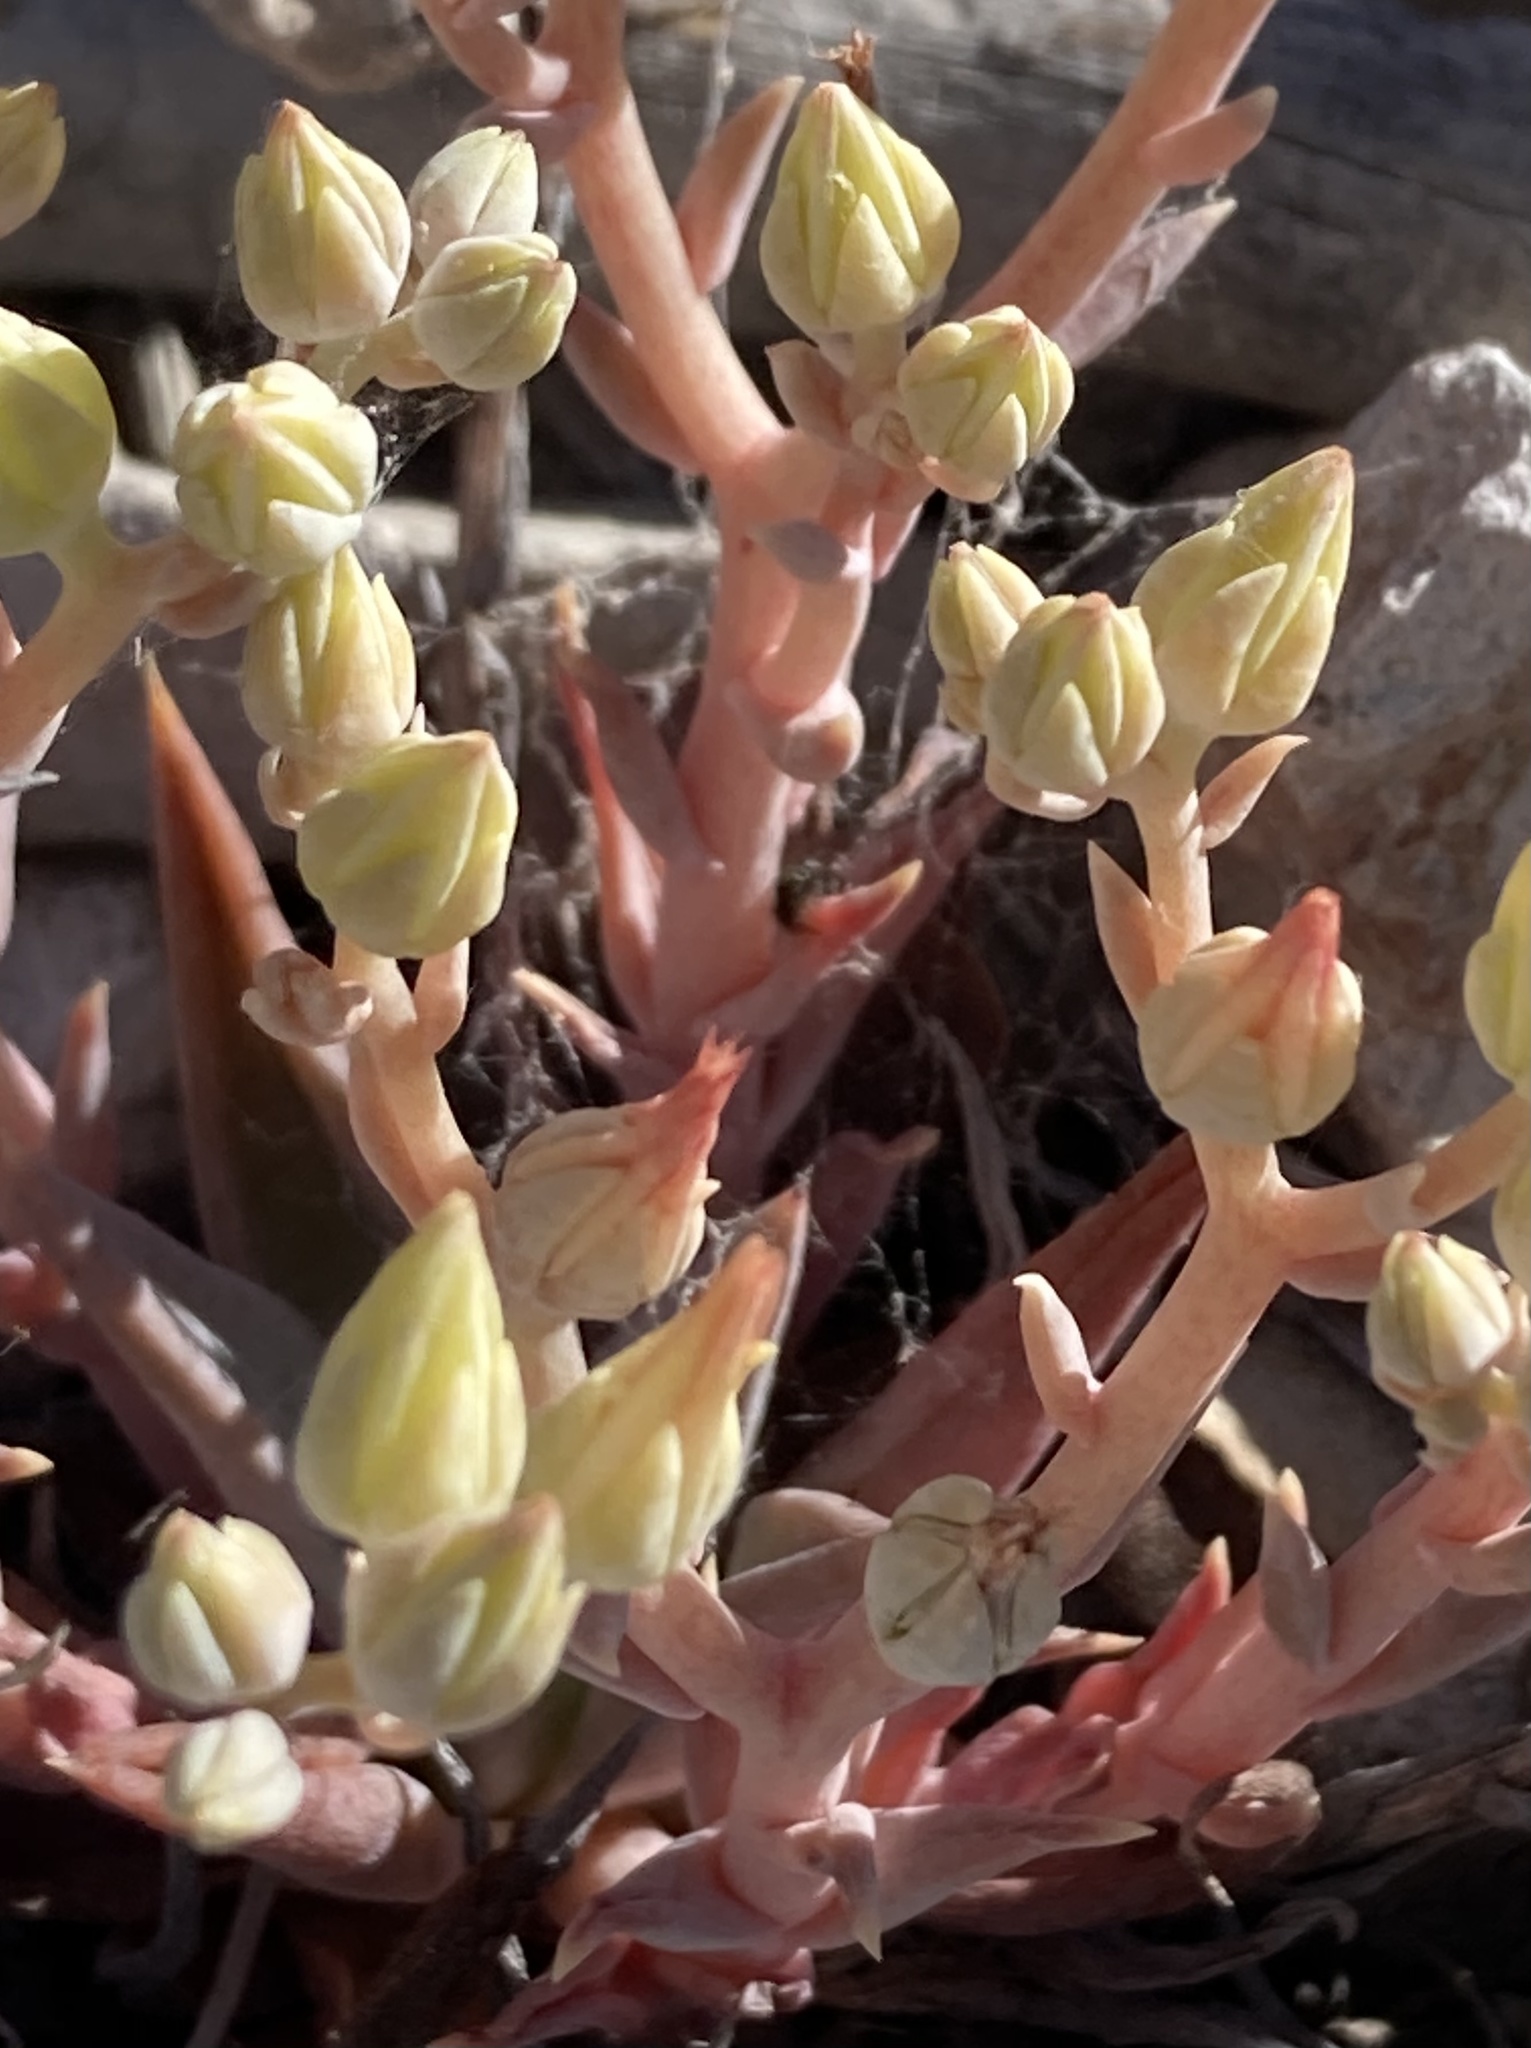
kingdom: Plantae
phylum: Tracheophyta
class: Magnoliopsida
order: Saxifragales
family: Crassulaceae
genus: Dudleya
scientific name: Dudleya cymosa
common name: Canyon dudleya
